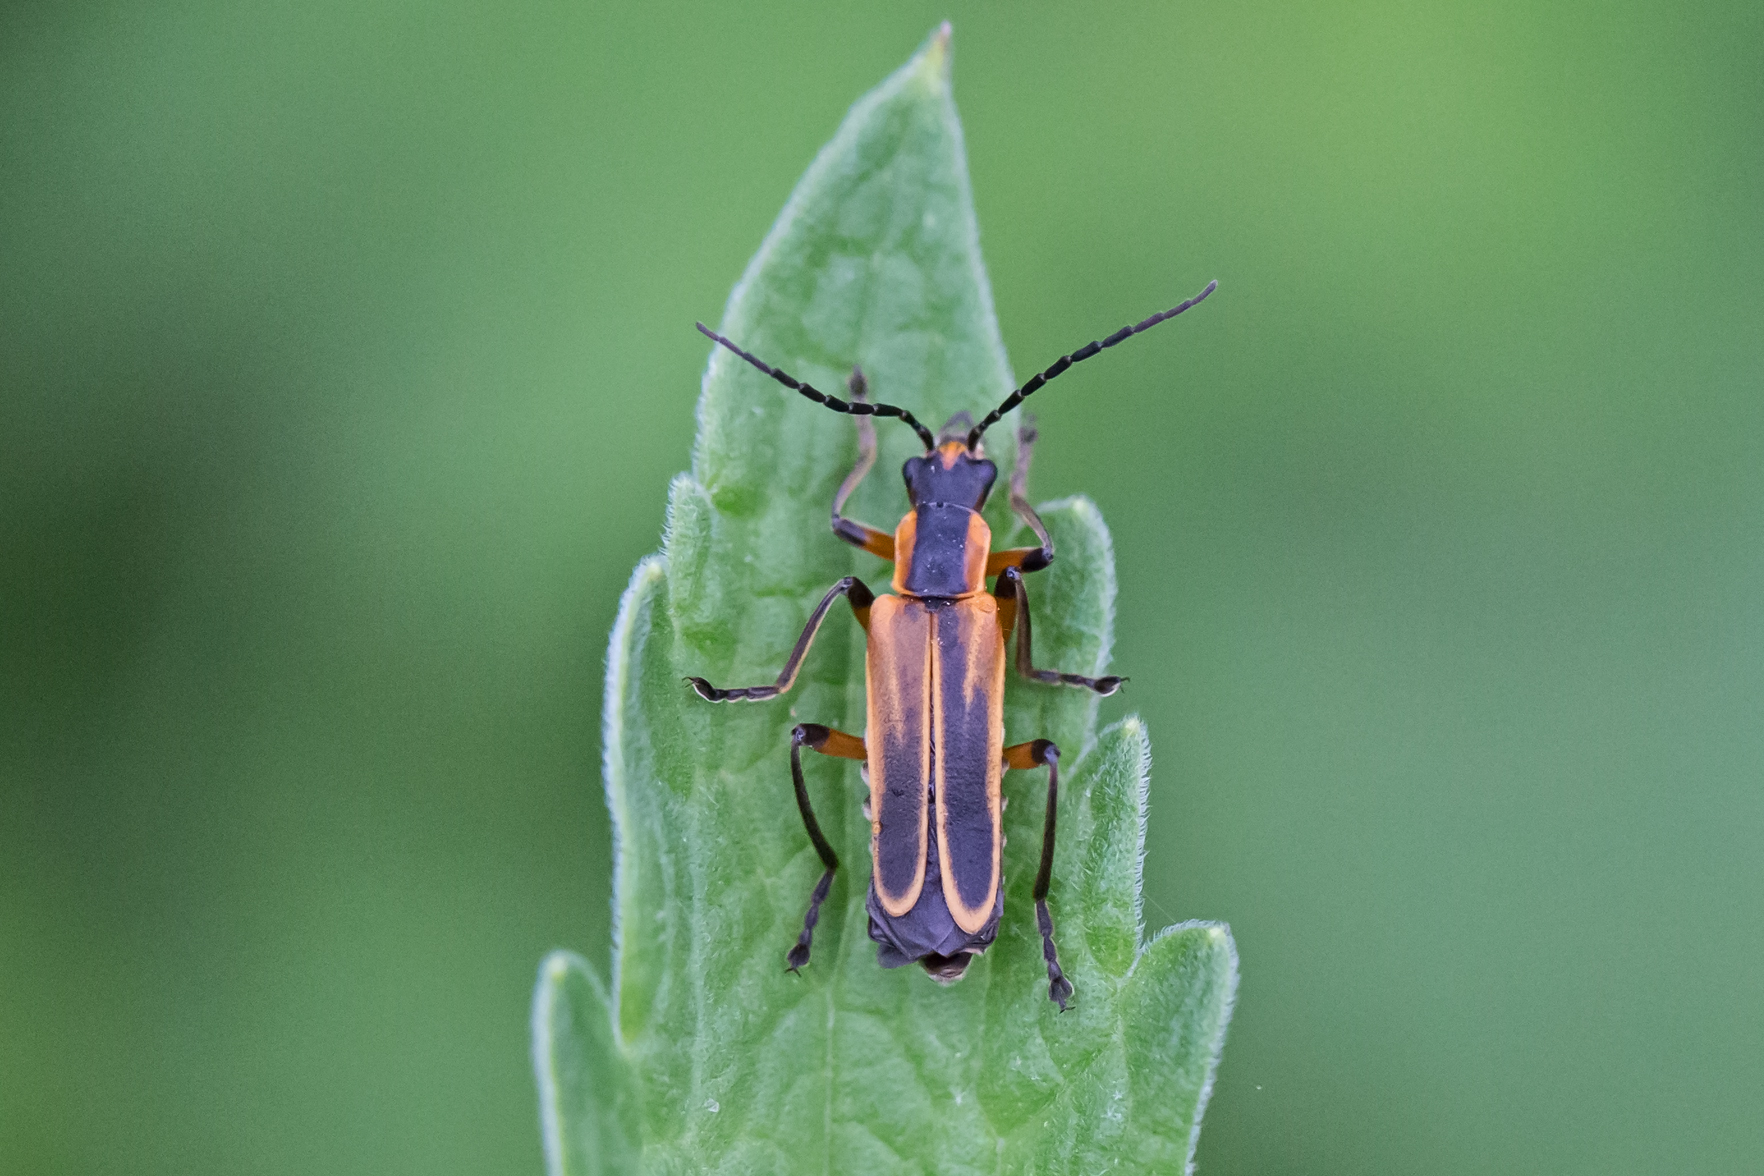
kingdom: Animalia
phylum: Arthropoda
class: Insecta
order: Coleoptera
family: Cantharidae
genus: Chauliognathus
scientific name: Chauliognathus marginatus
